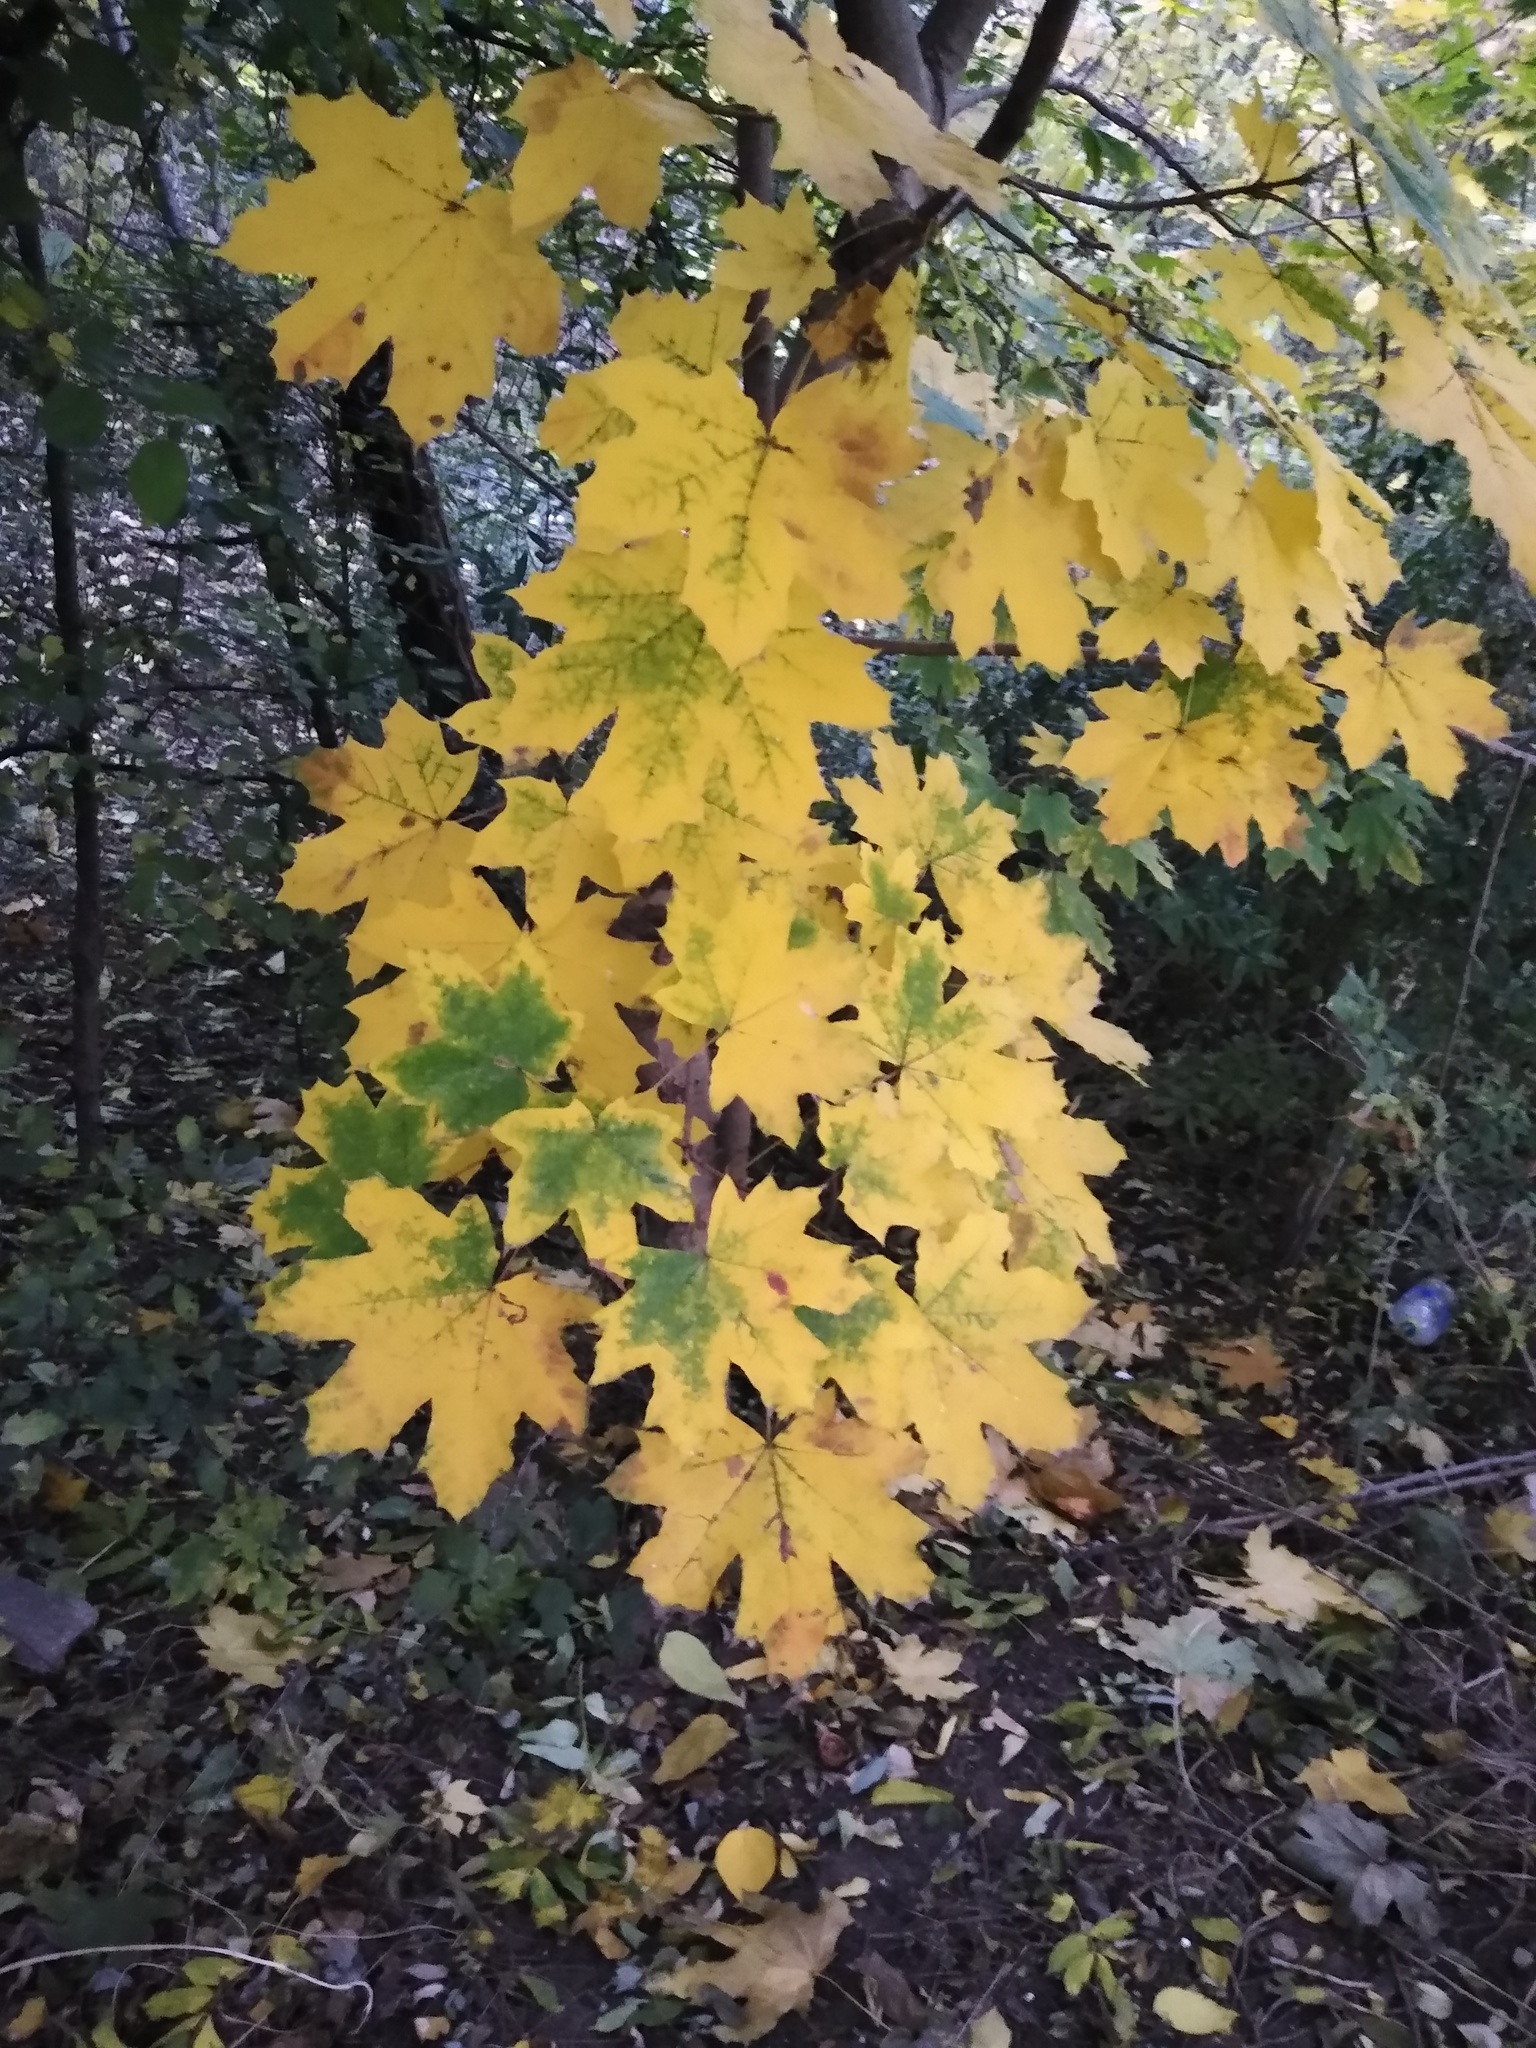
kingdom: Plantae
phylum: Tracheophyta
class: Magnoliopsida
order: Sapindales
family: Sapindaceae
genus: Acer
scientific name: Acer platanoides
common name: Norway maple
